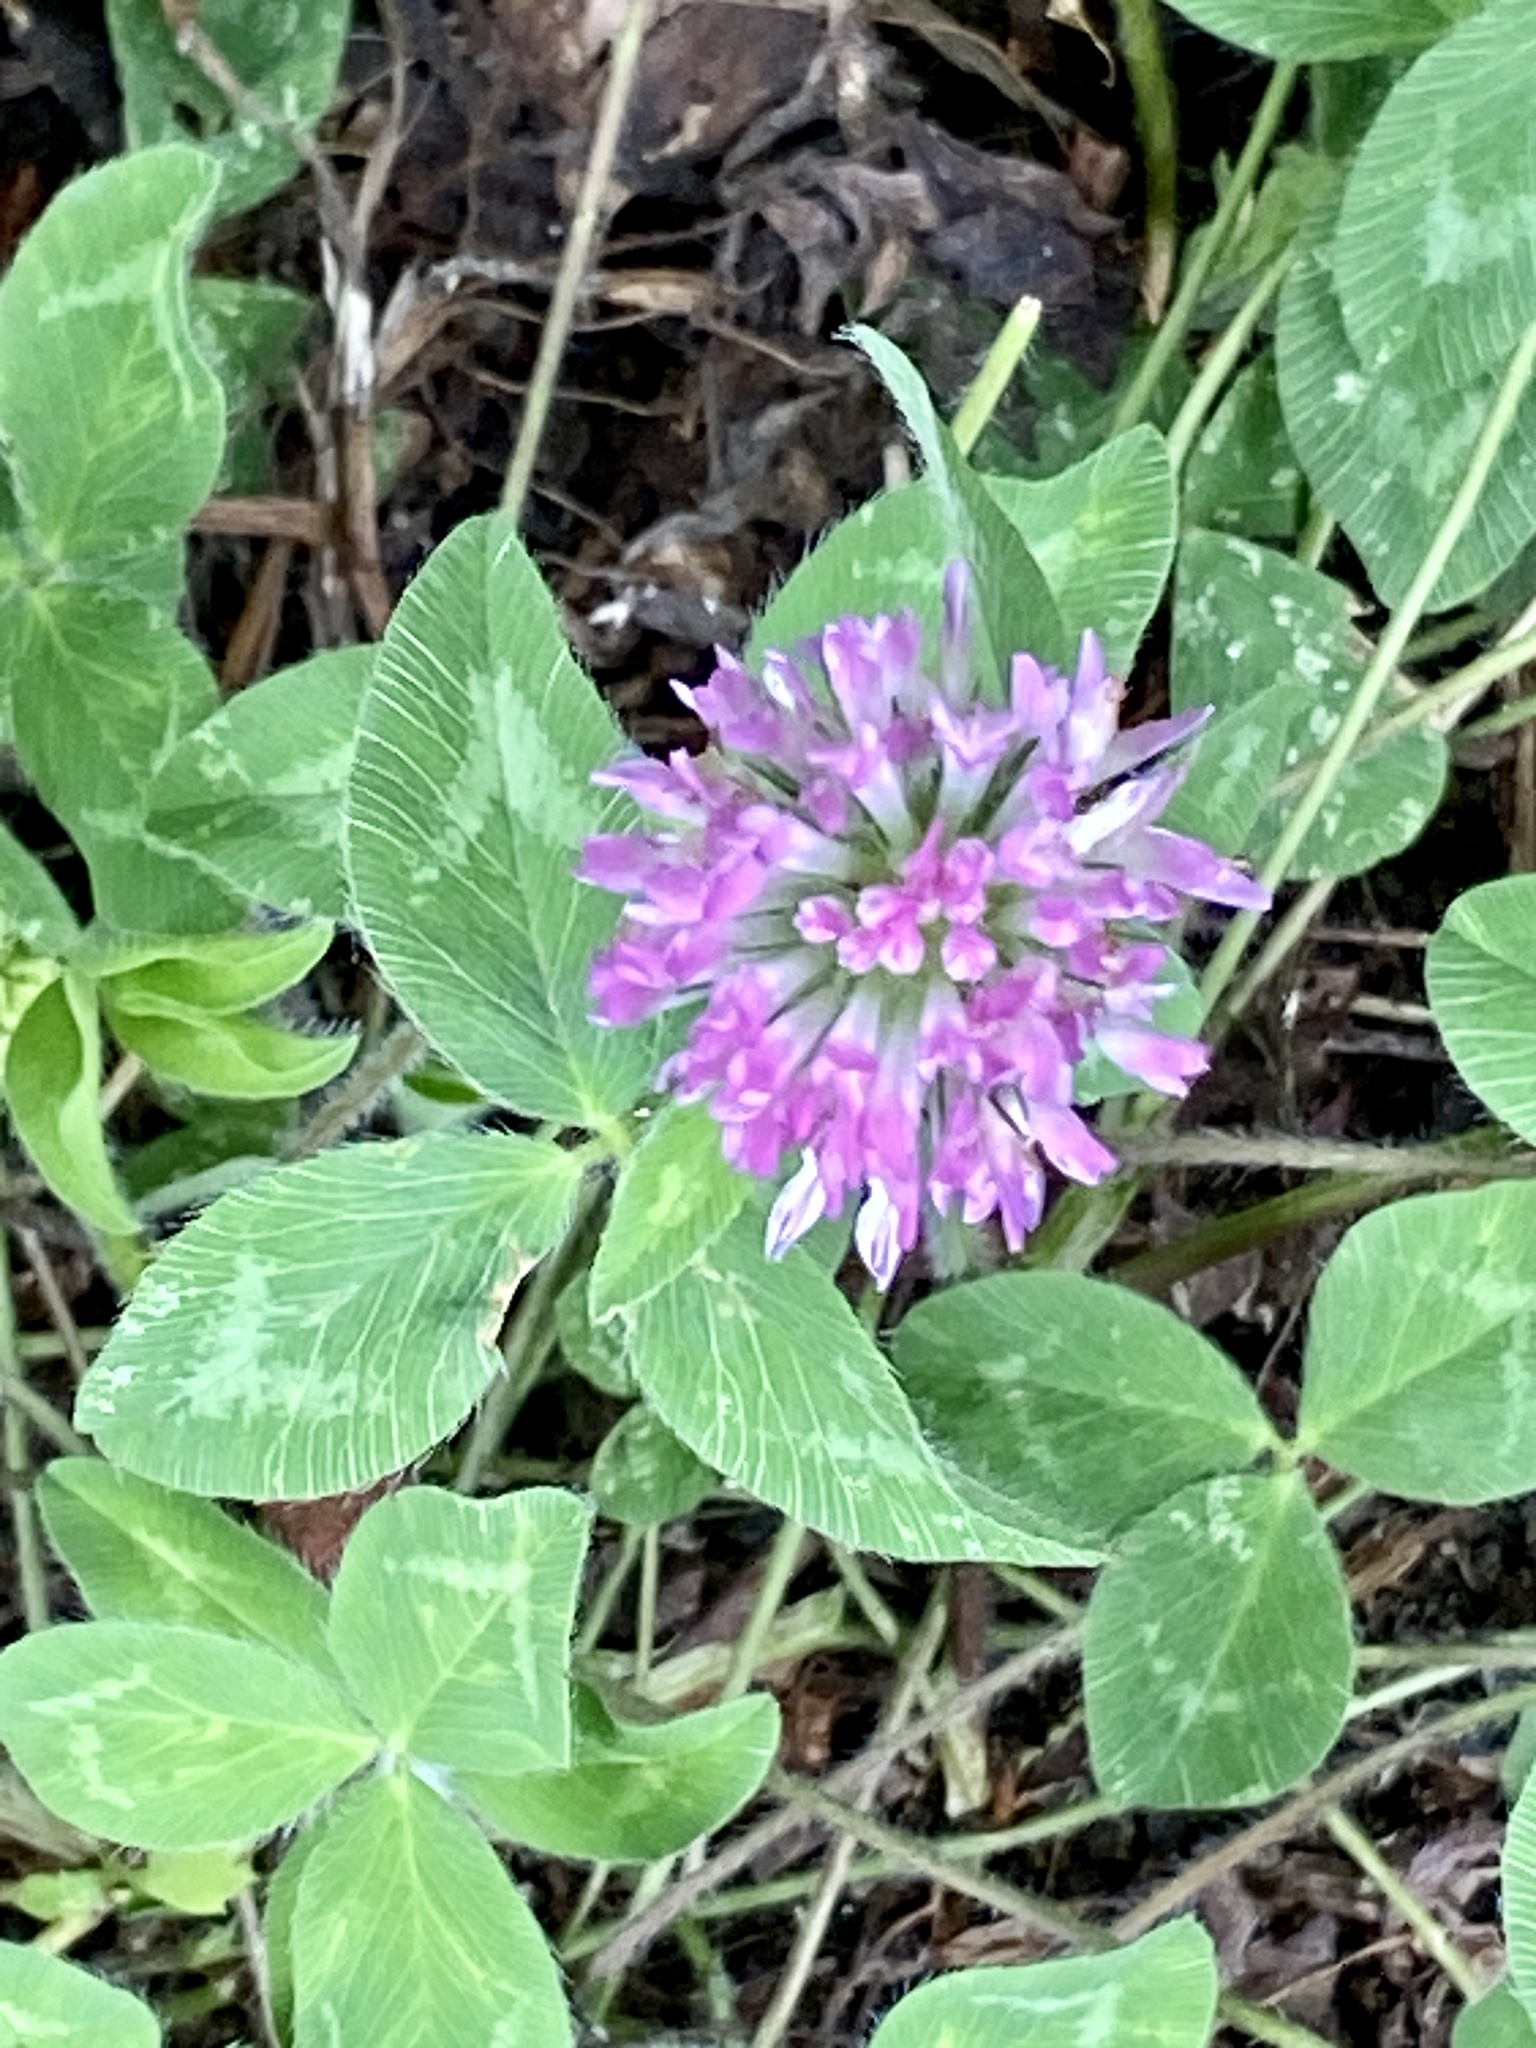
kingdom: Plantae
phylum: Tracheophyta
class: Magnoliopsida
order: Fabales
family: Fabaceae
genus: Trifolium
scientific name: Trifolium pratense
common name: Red clover
